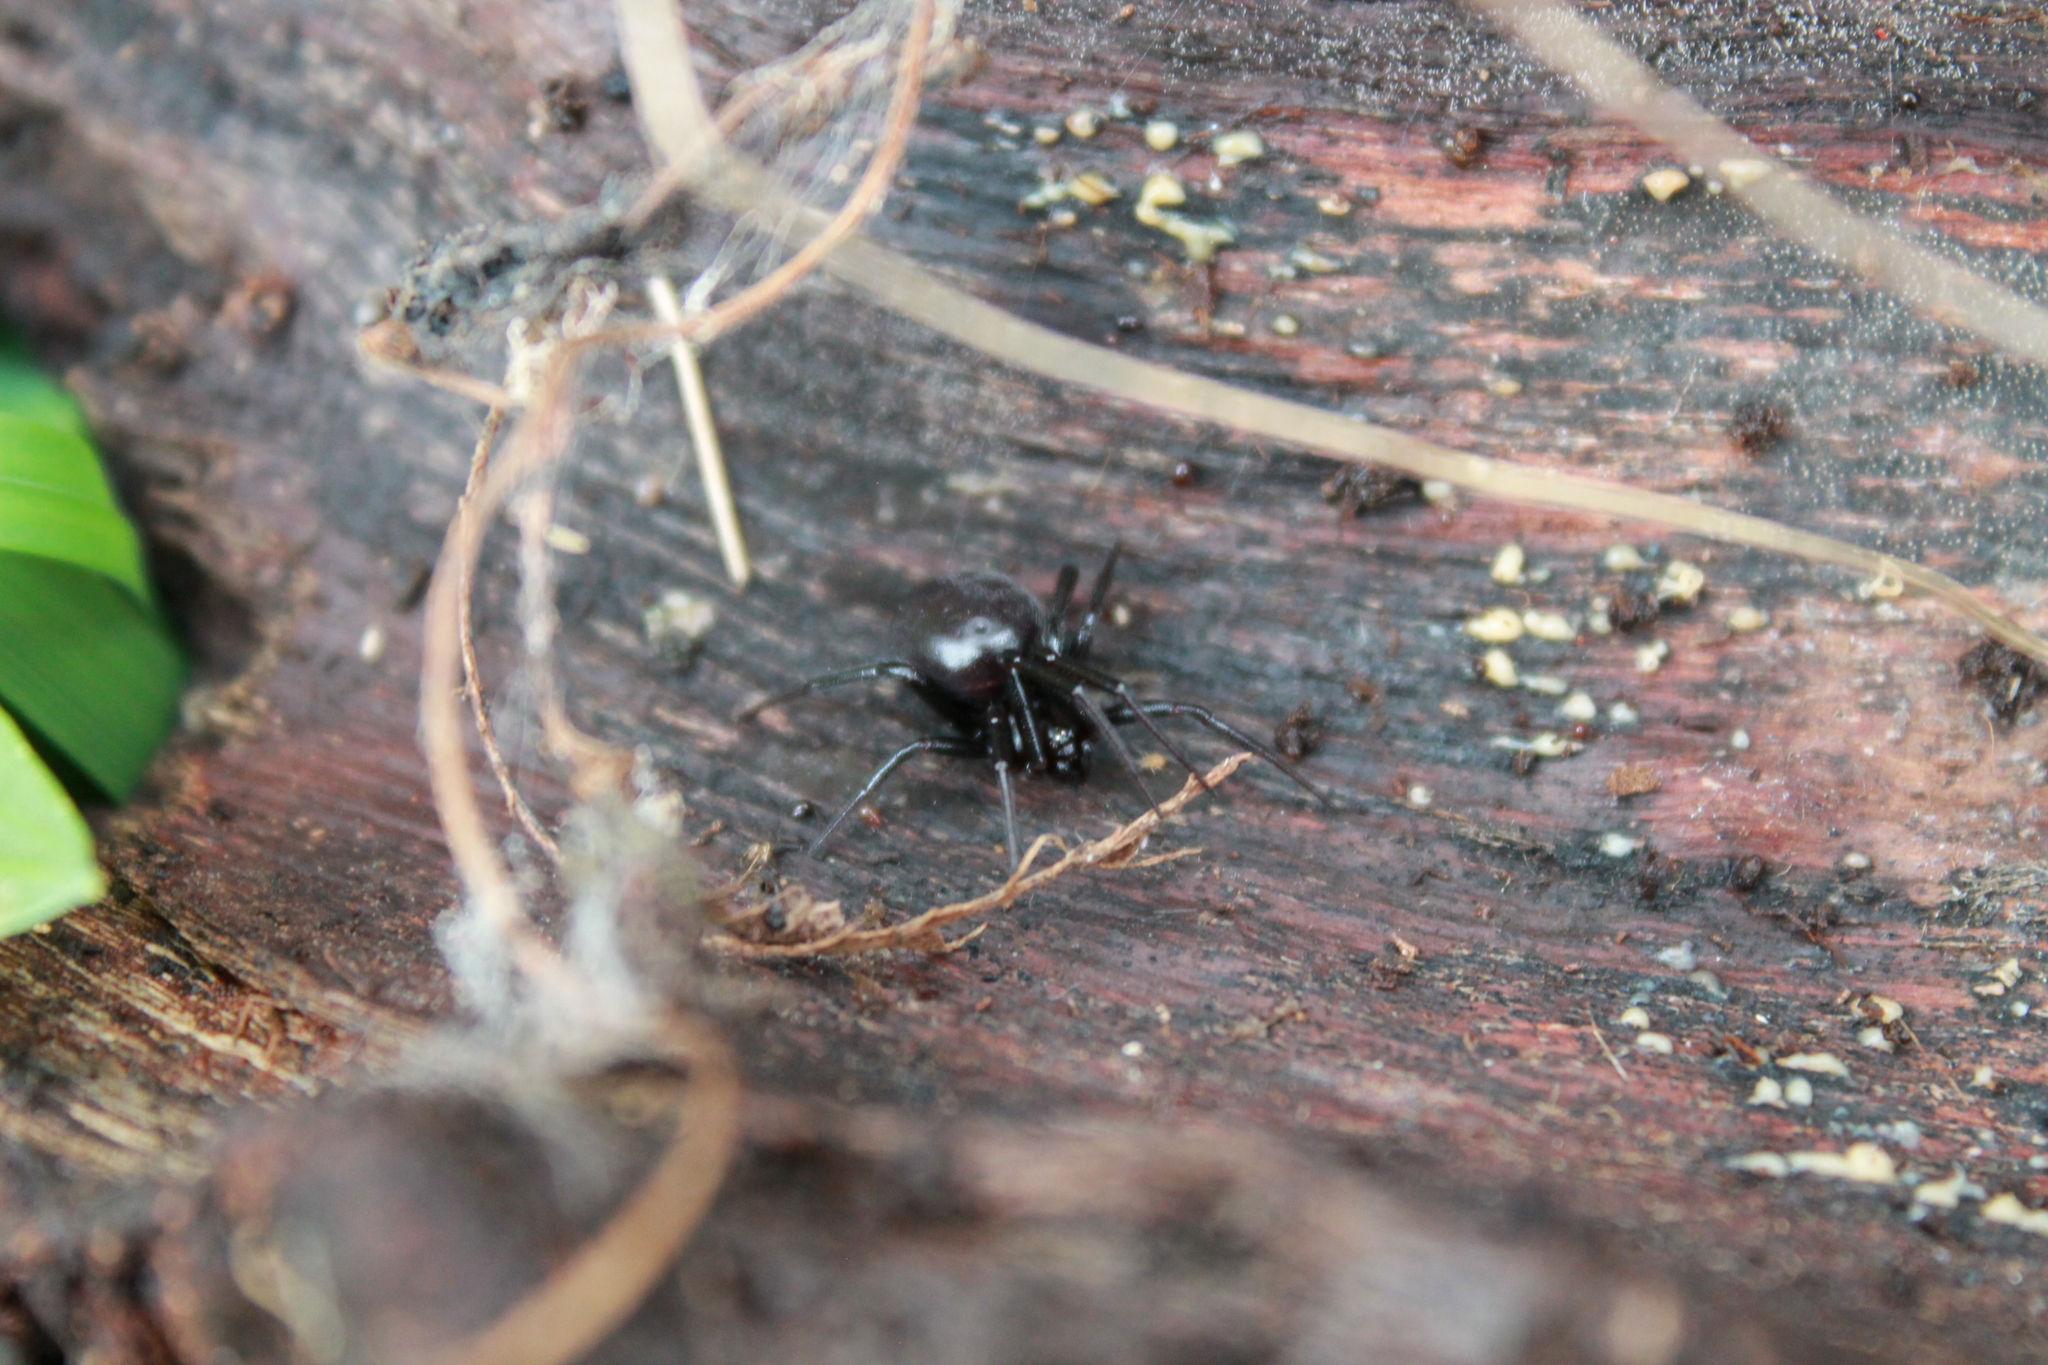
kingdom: Animalia
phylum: Arthropoda
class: Arachnida
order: Araneae
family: Theridiidae
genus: Steatoda
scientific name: Steatoda capensis
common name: Cobweb weaver
